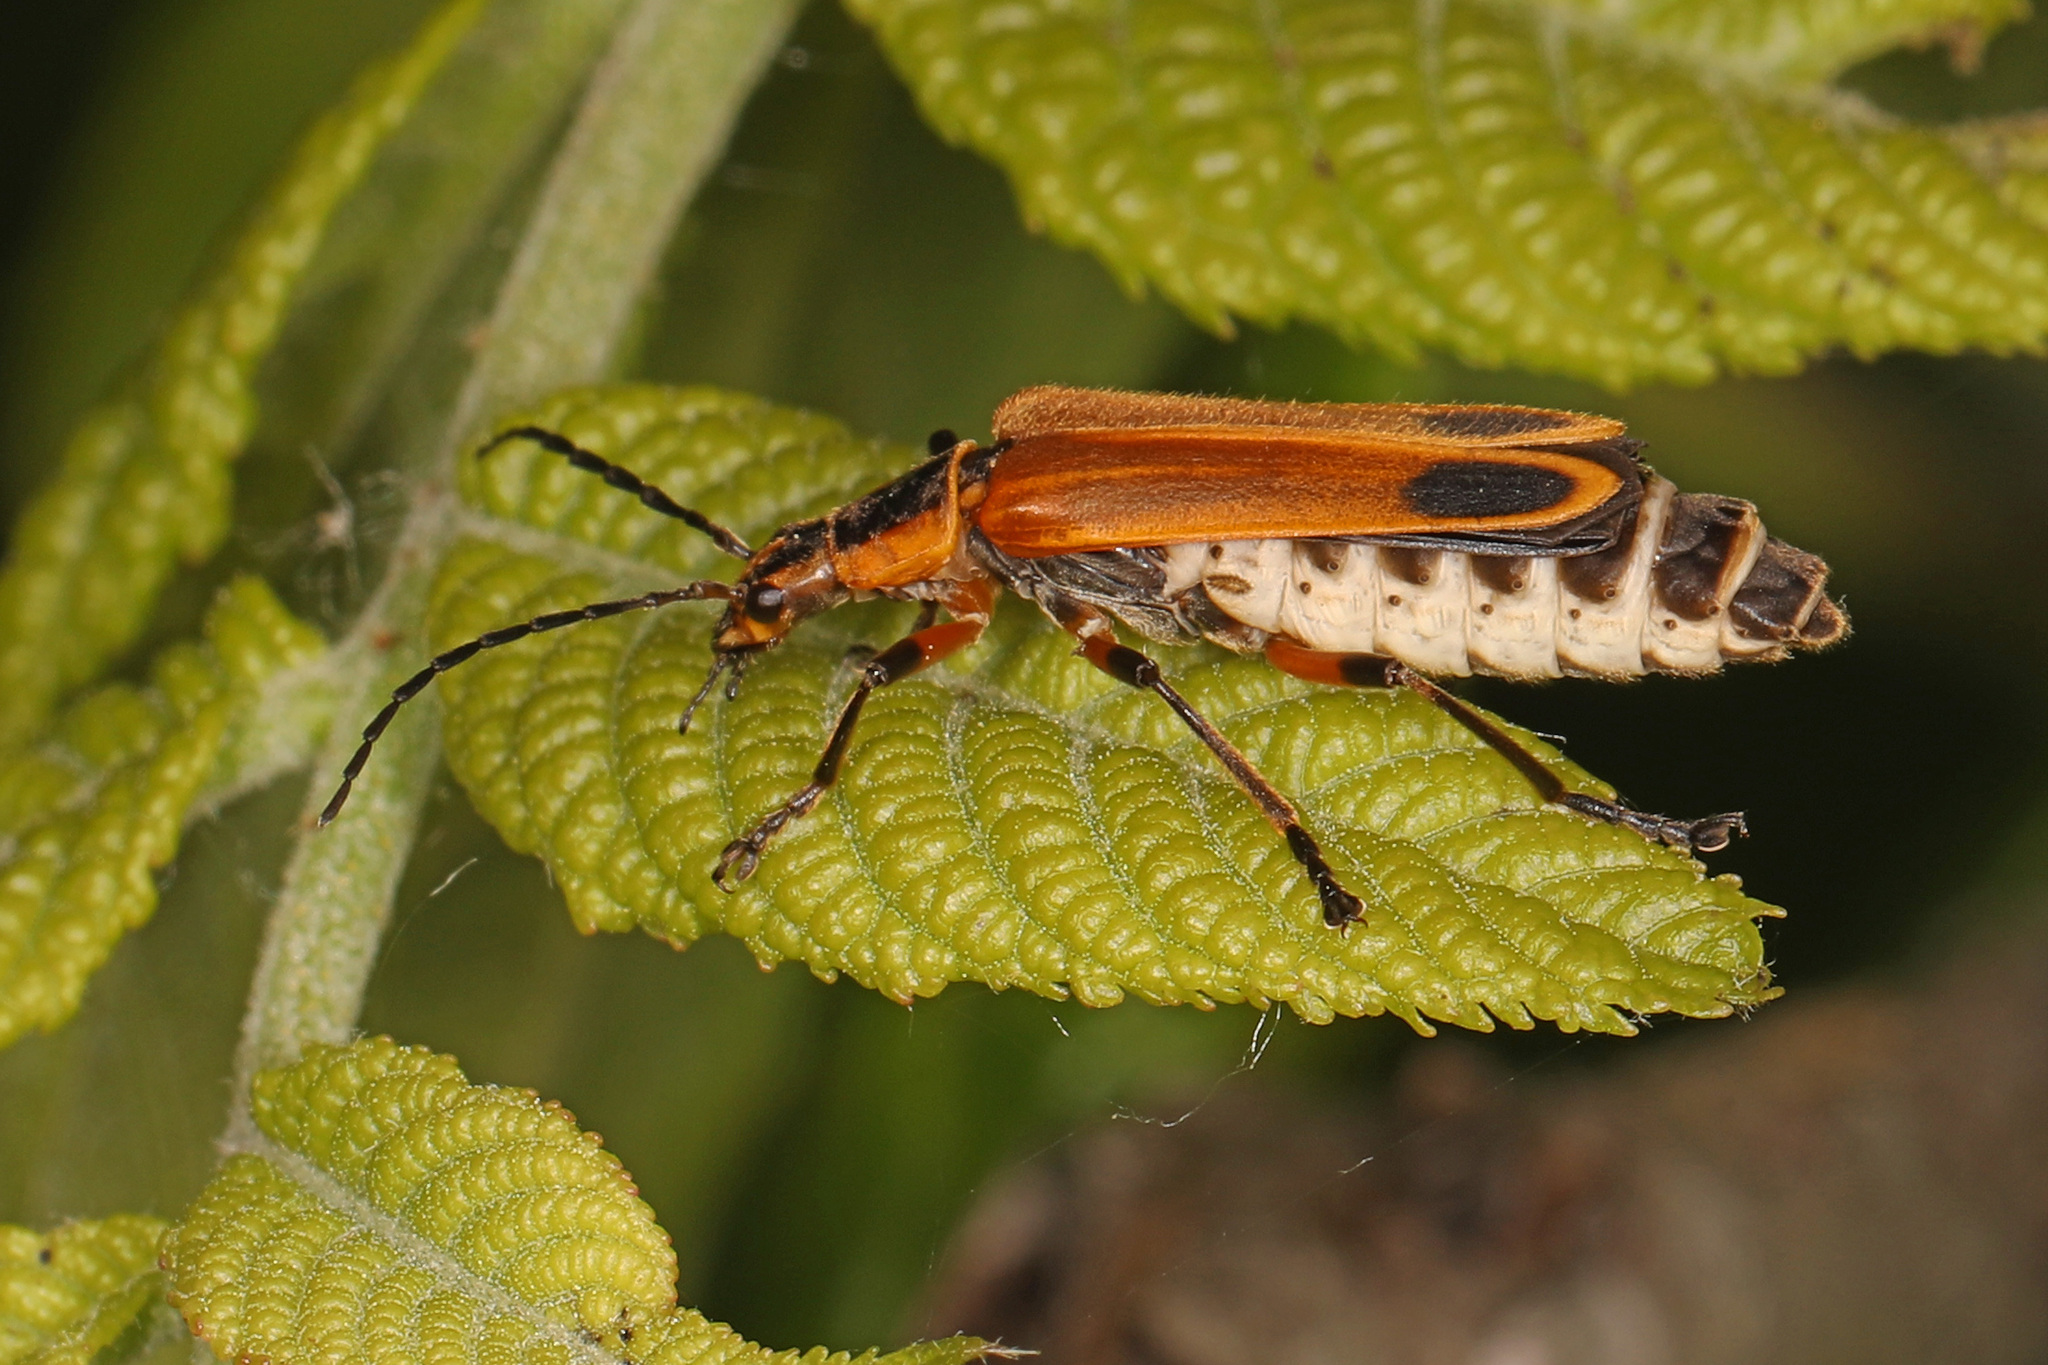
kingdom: Animalia
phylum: Arthropoda
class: Insecta
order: Coleoptera
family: Cantharidae
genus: Chauliognathus
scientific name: Chauliognathus marginatus
